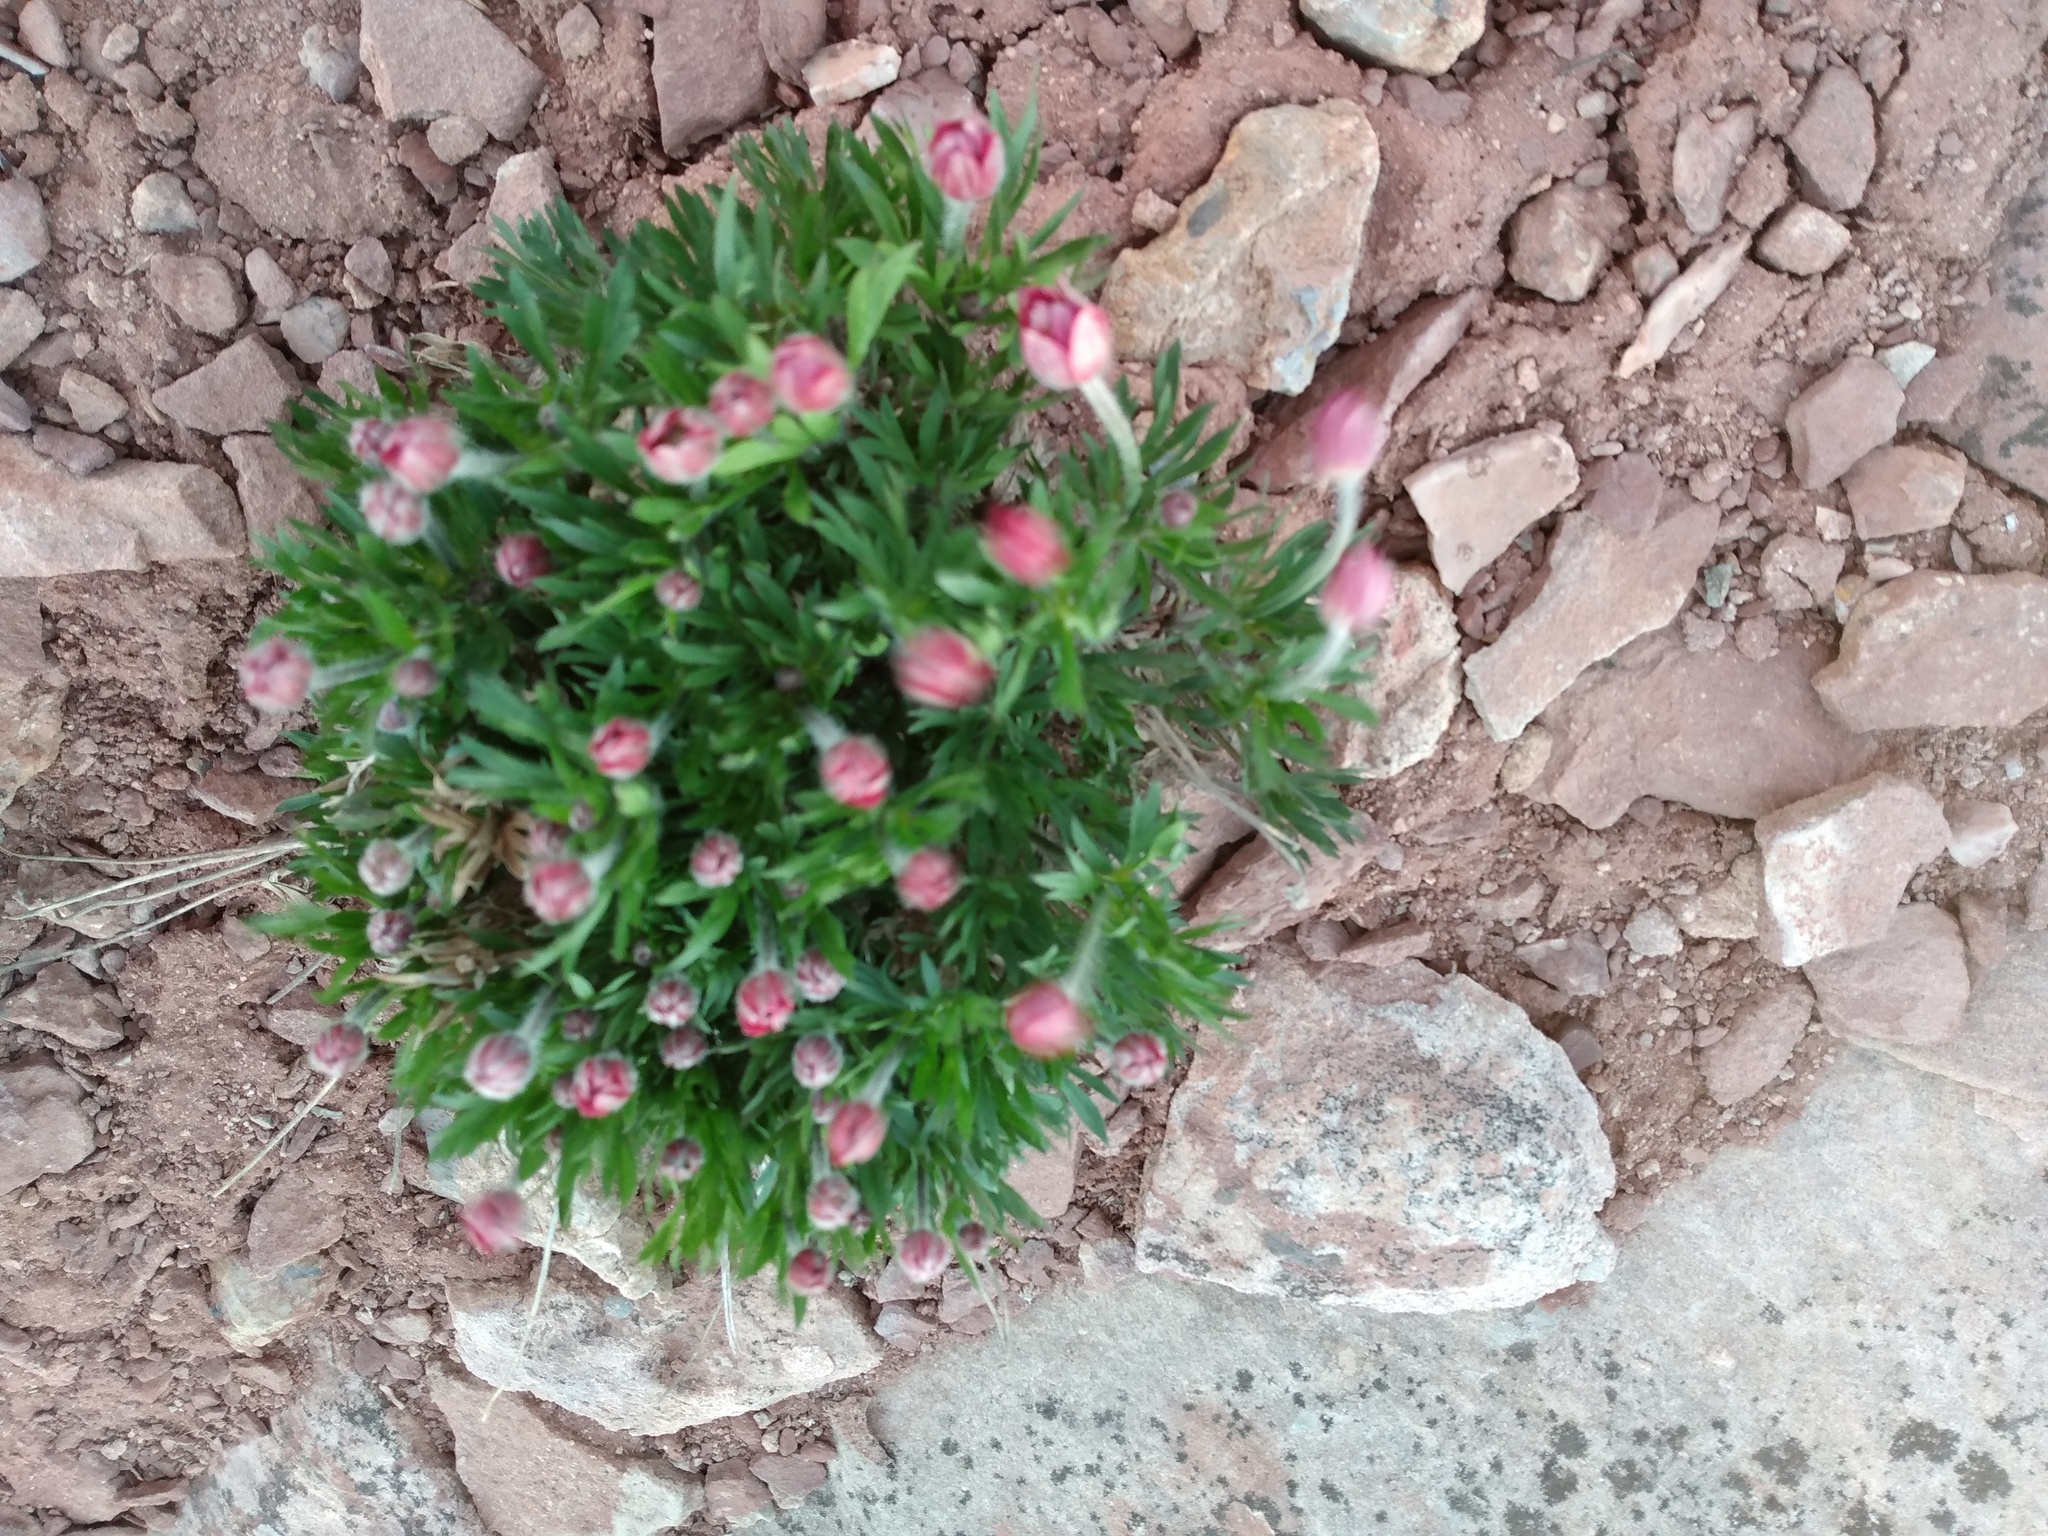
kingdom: Plantae
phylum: Tracheophyta
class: Magnoliopsida
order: Ranunculales
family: Ranunculaceae
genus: Anemone
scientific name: Anemone multifida
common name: Bird's-foot anemone
